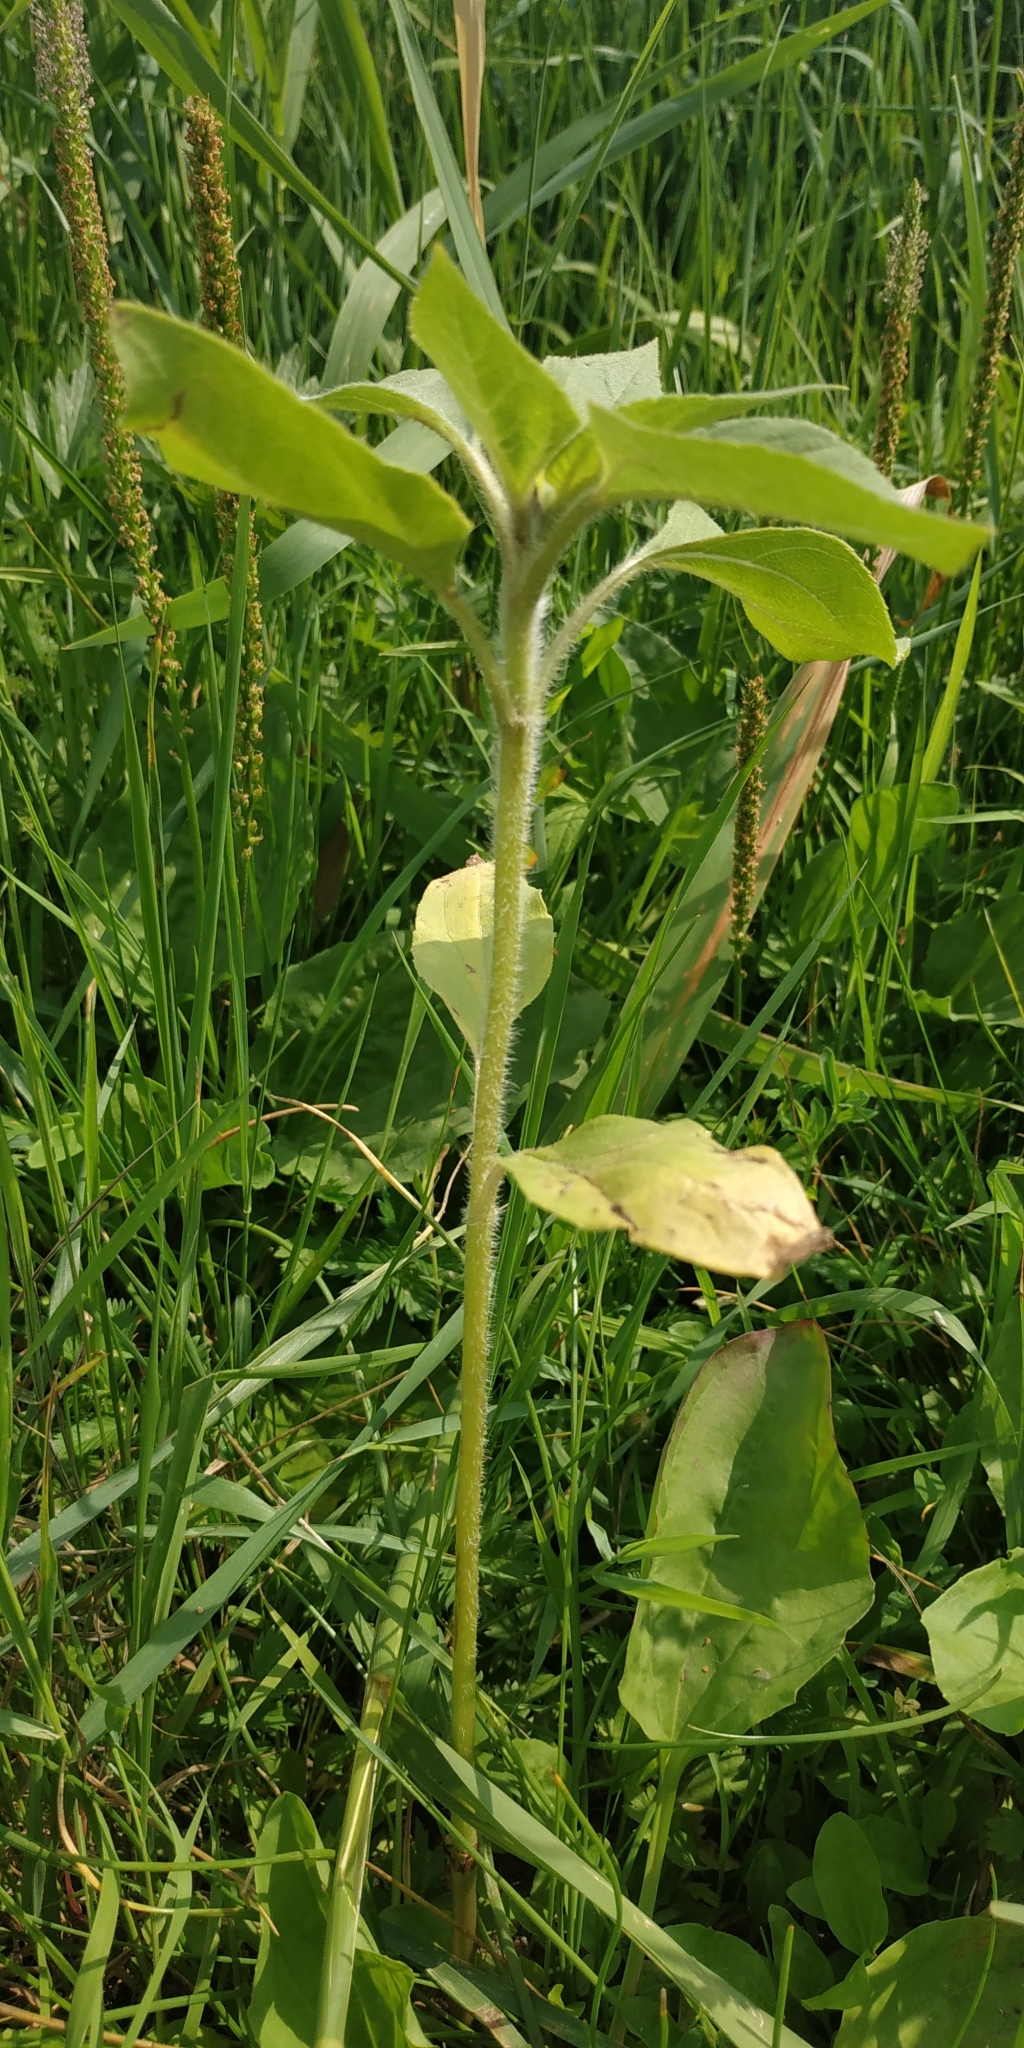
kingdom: Plantae
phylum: Tracheophyta
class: Magnoliopsida
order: Asterales
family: Asteraceae
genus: Helianthus
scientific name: Helianthus annuus
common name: Sunflower
